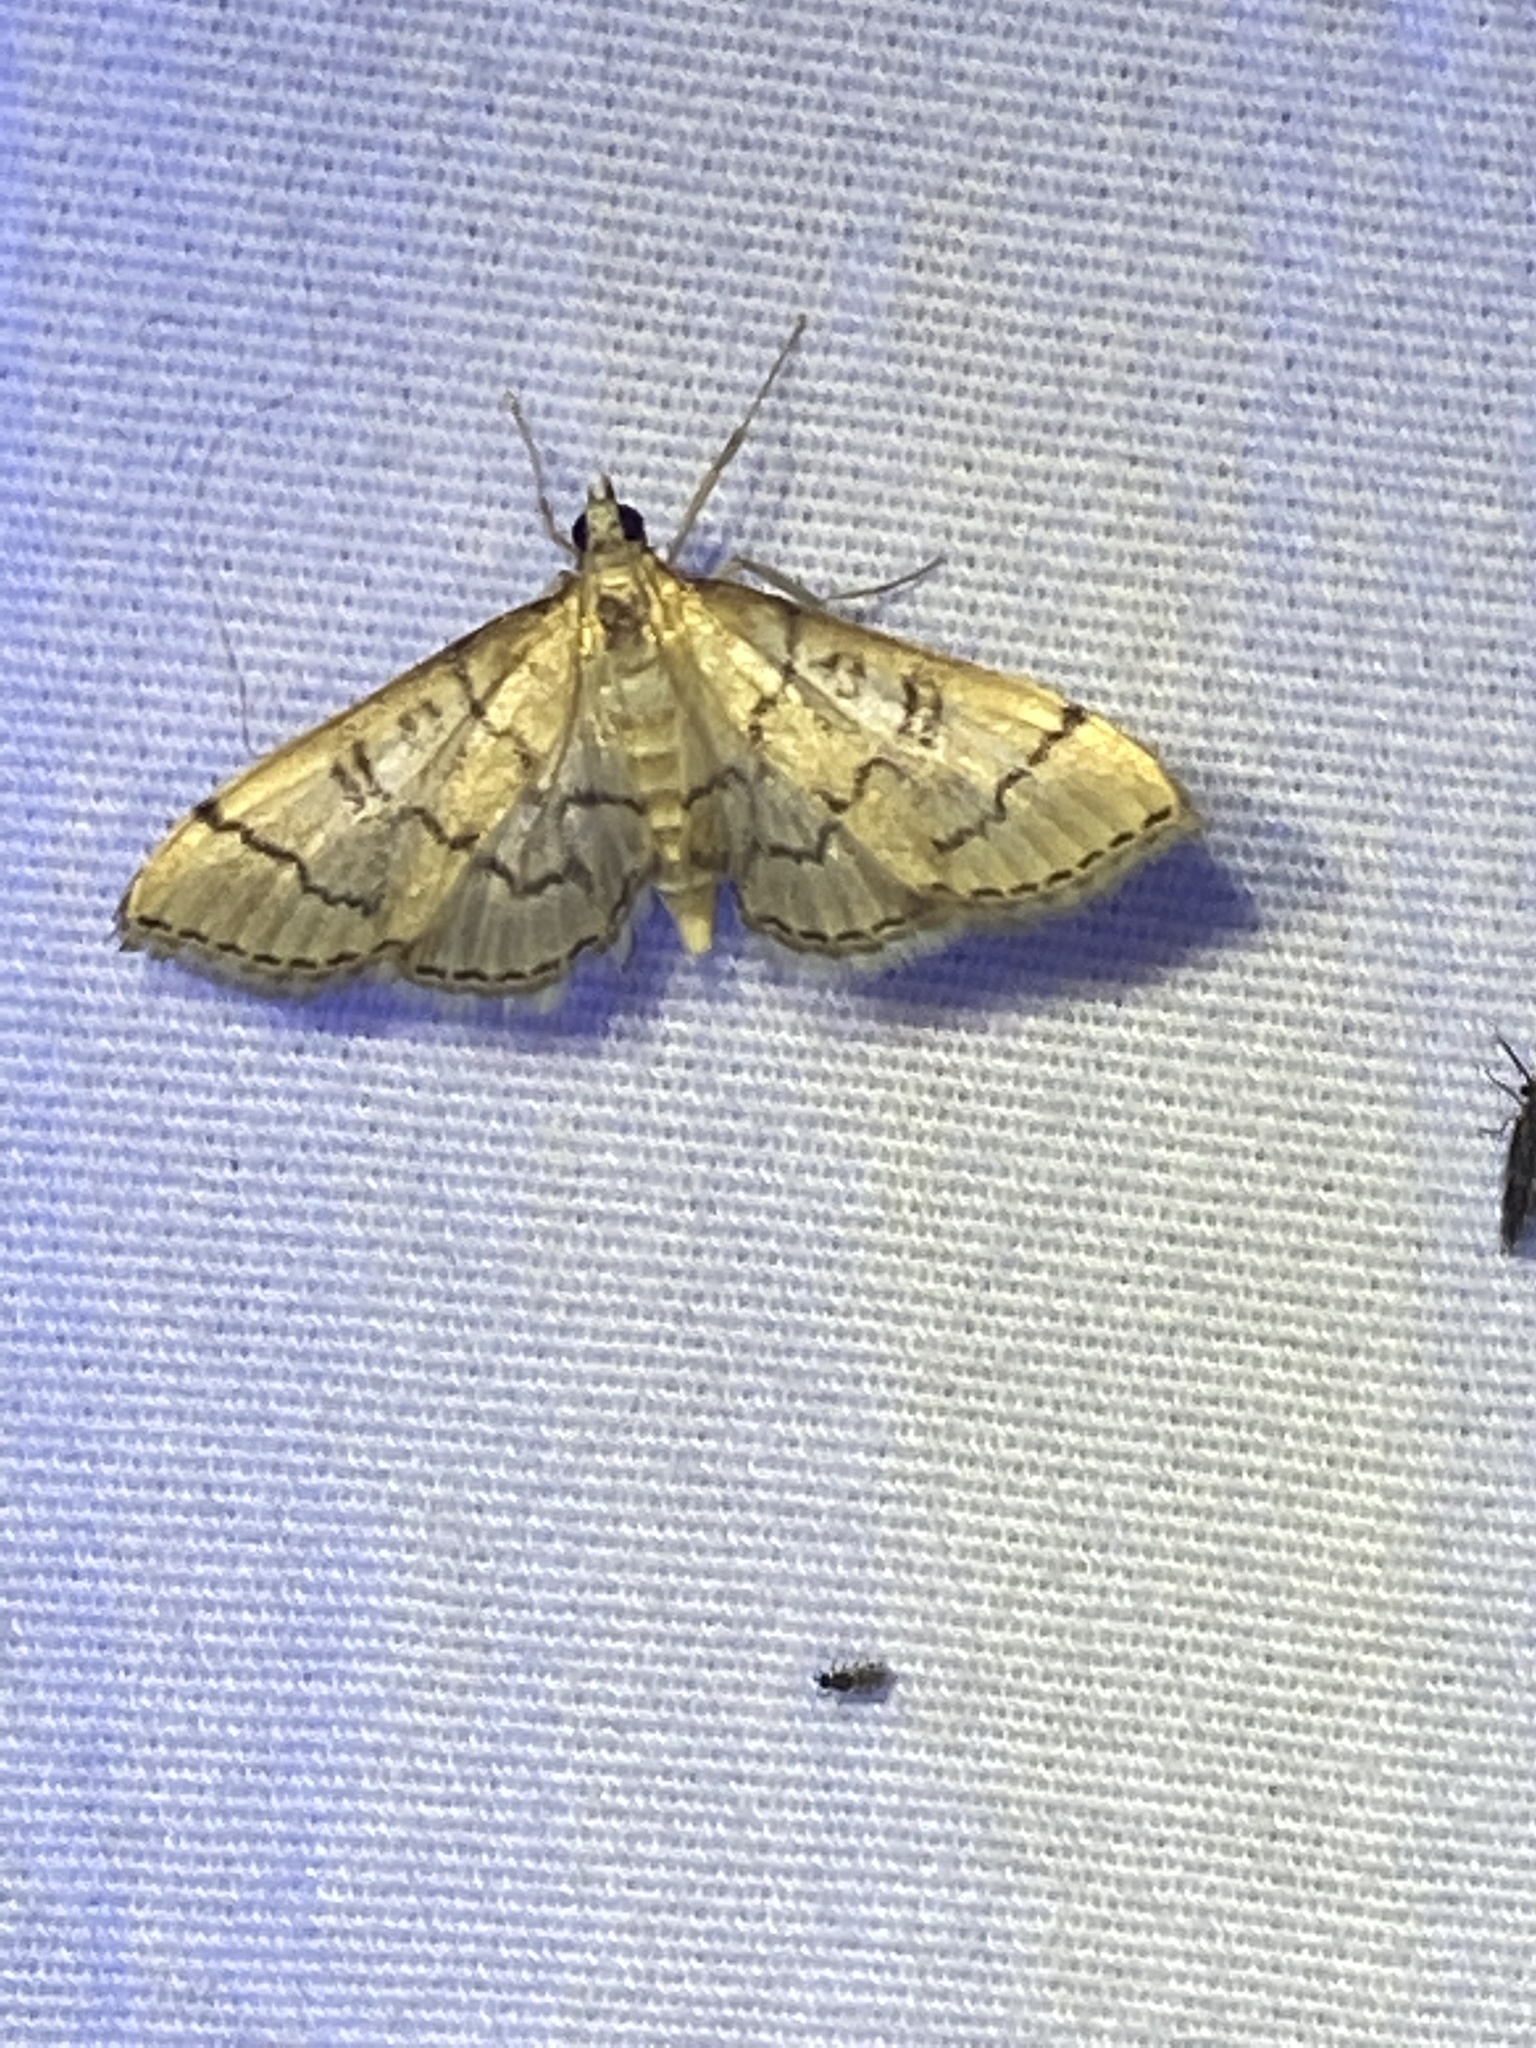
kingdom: Animalia
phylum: Arthropoda
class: Insecta
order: Lepidoptera
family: Crambidae
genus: Lamprosema
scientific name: Lamprosema Blepharomastix ranalis
